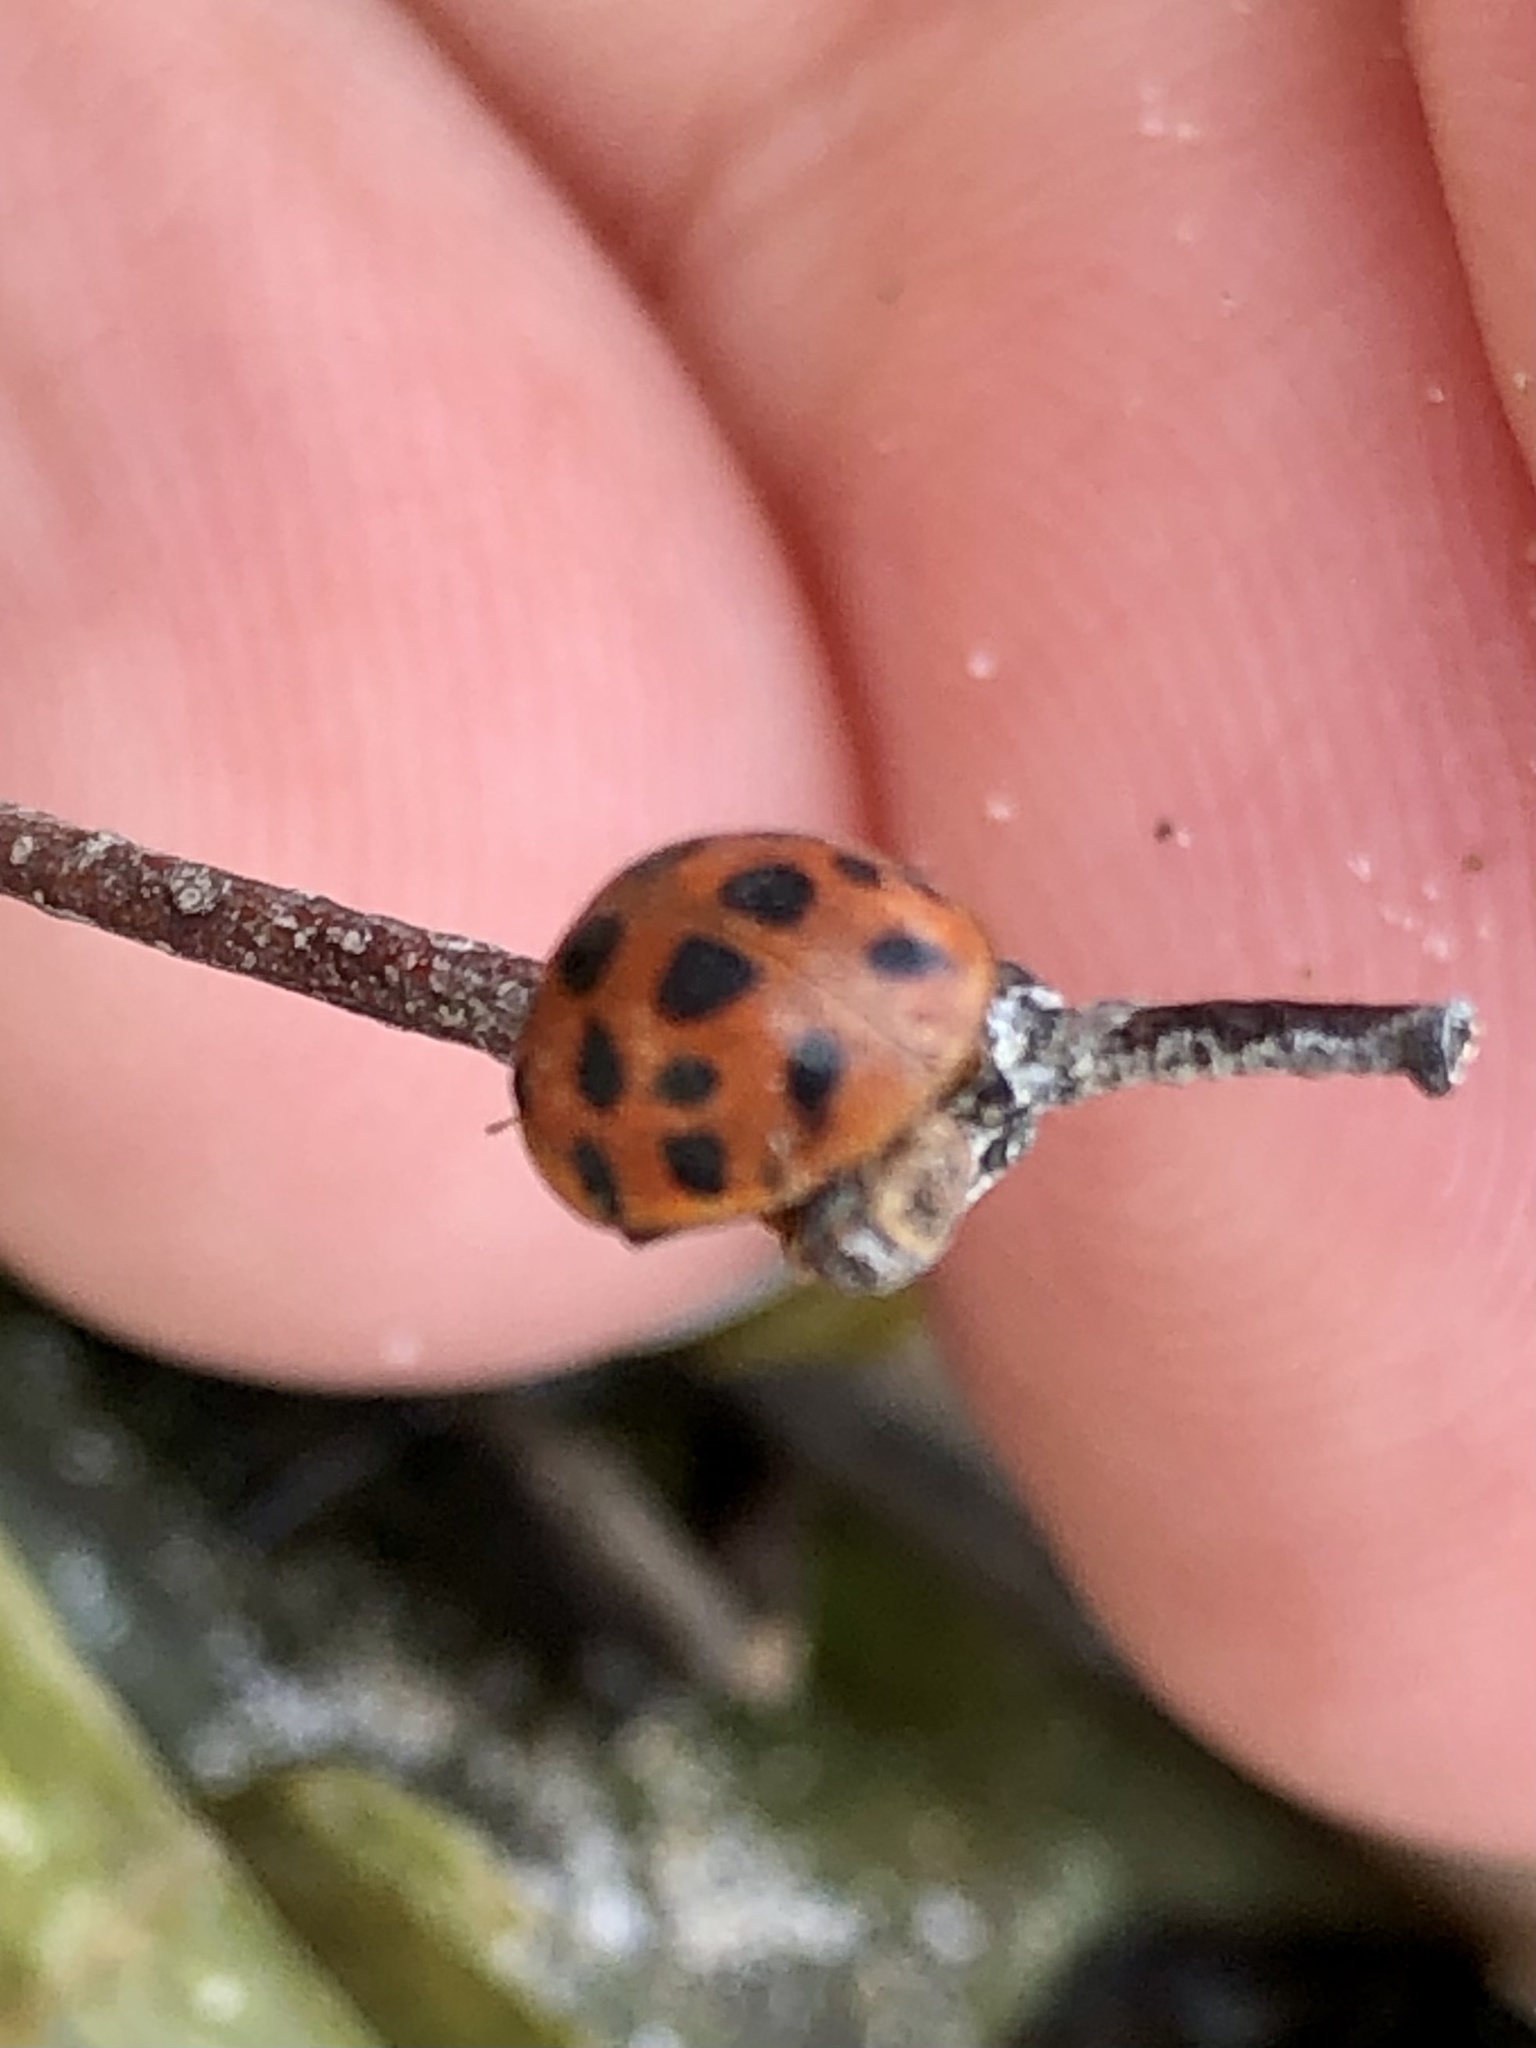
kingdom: Animalia
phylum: Arthropoda
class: Insecta
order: Coleoptera
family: Coccinellidae
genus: Harmonia
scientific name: Harmonia axyridis
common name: Harlequin ladybird
